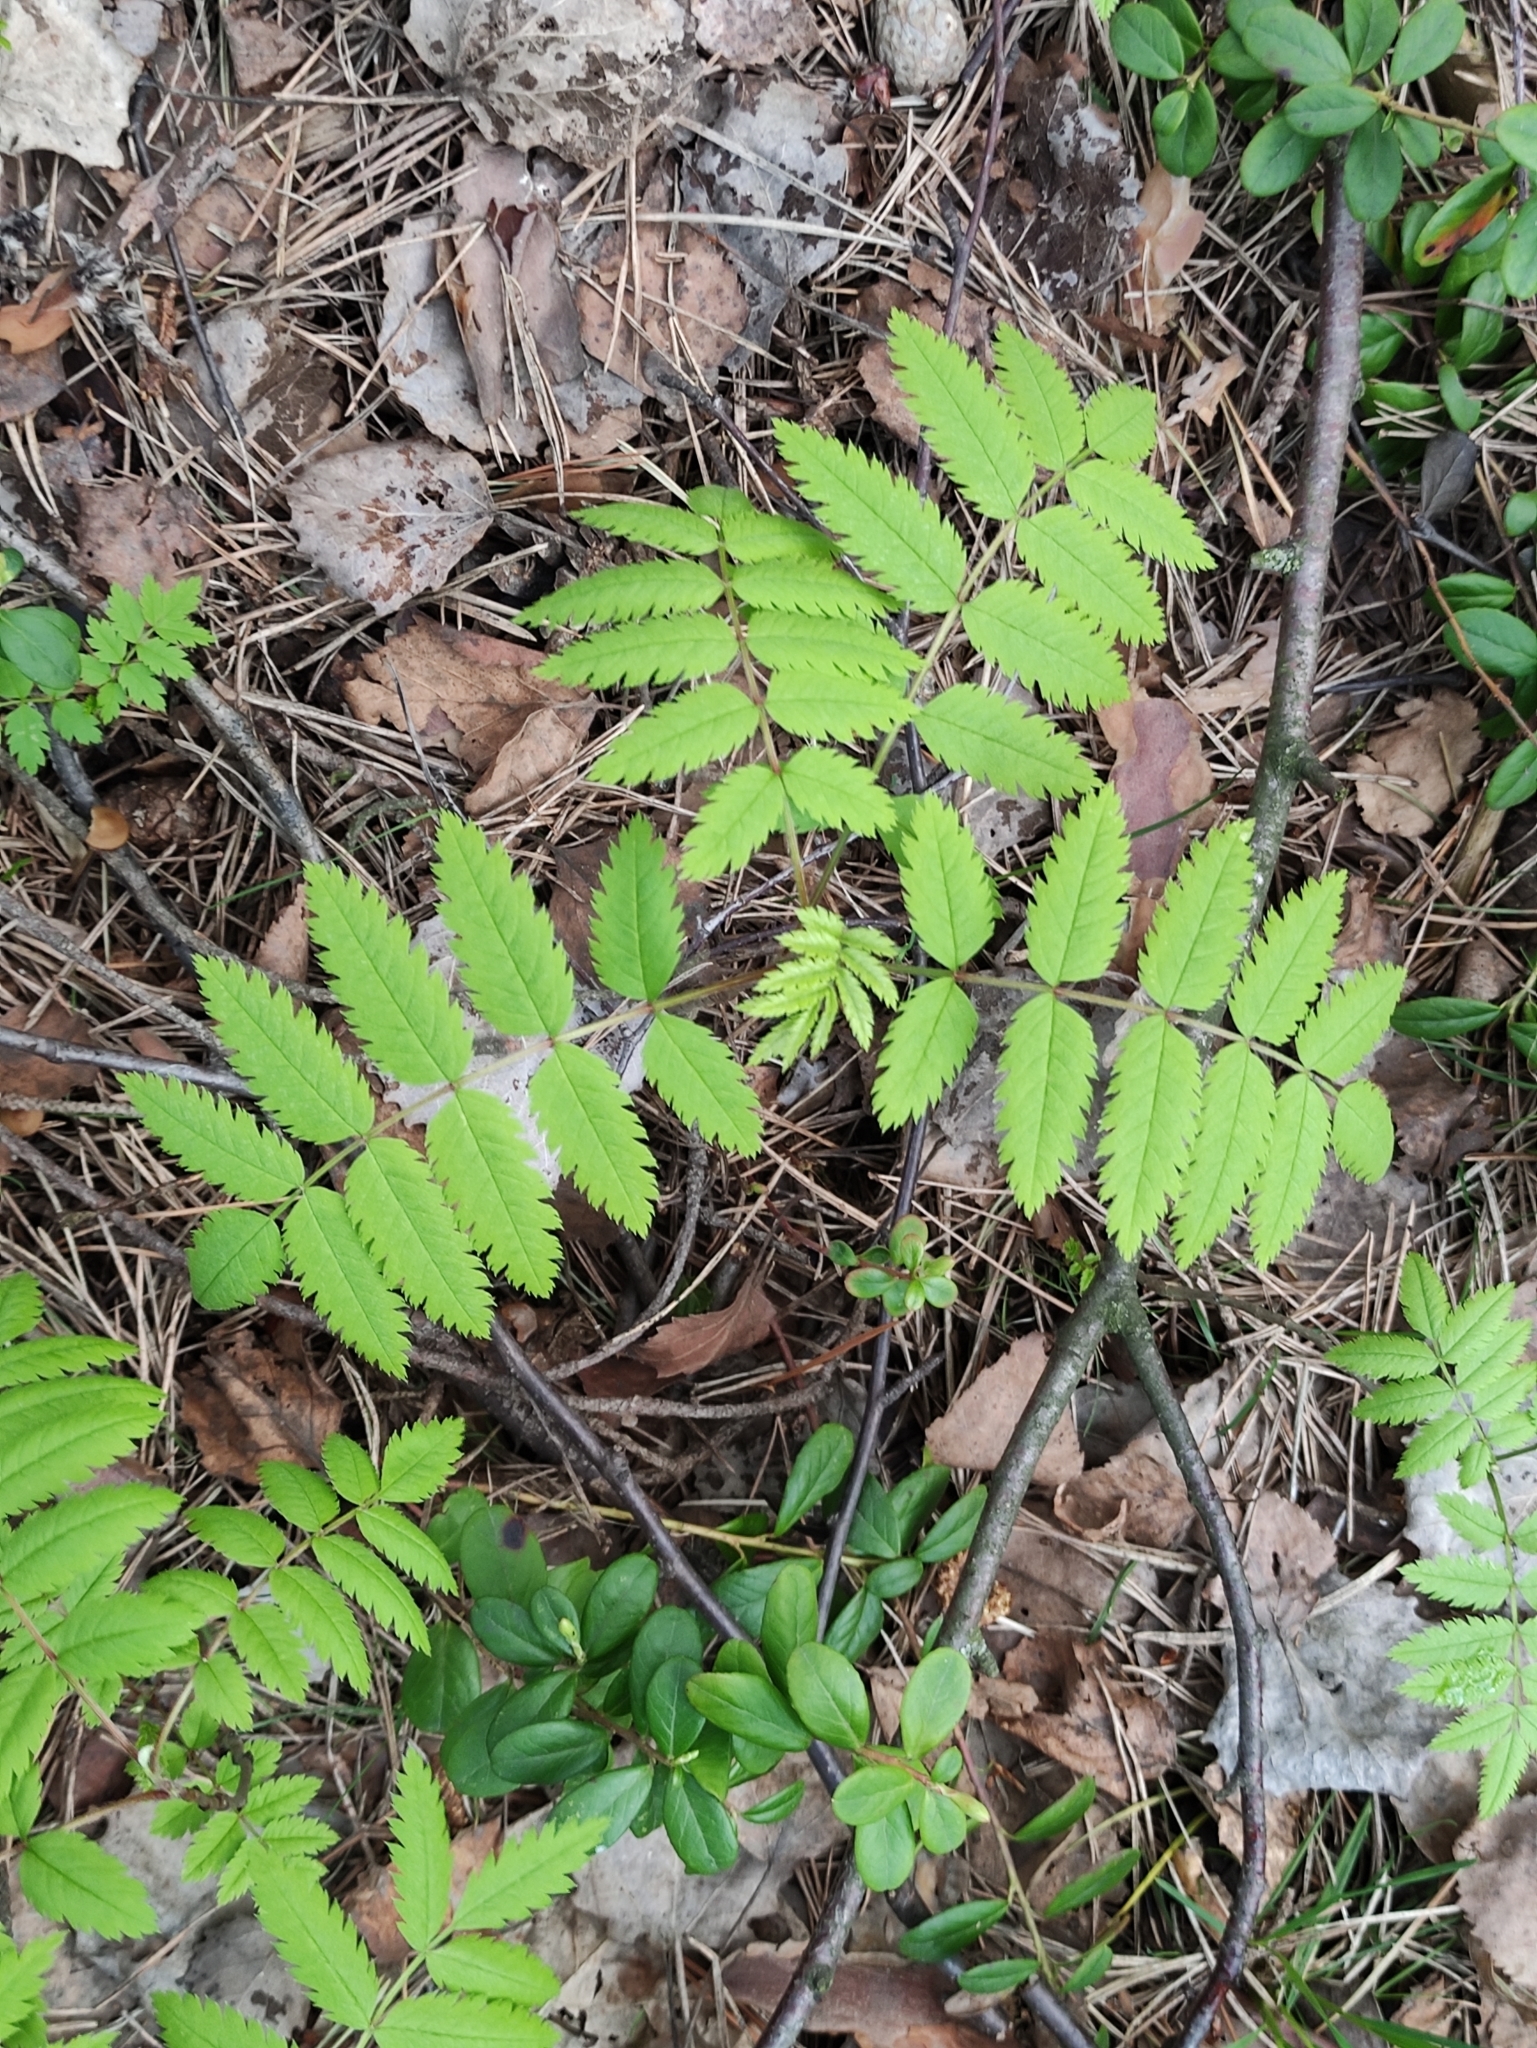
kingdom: Plantae
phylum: Tracheophyta
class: Magnoliopsida
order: Rosales
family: Rosaceae
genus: Sorbus
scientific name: Sorbus aucuparia
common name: Rowan
